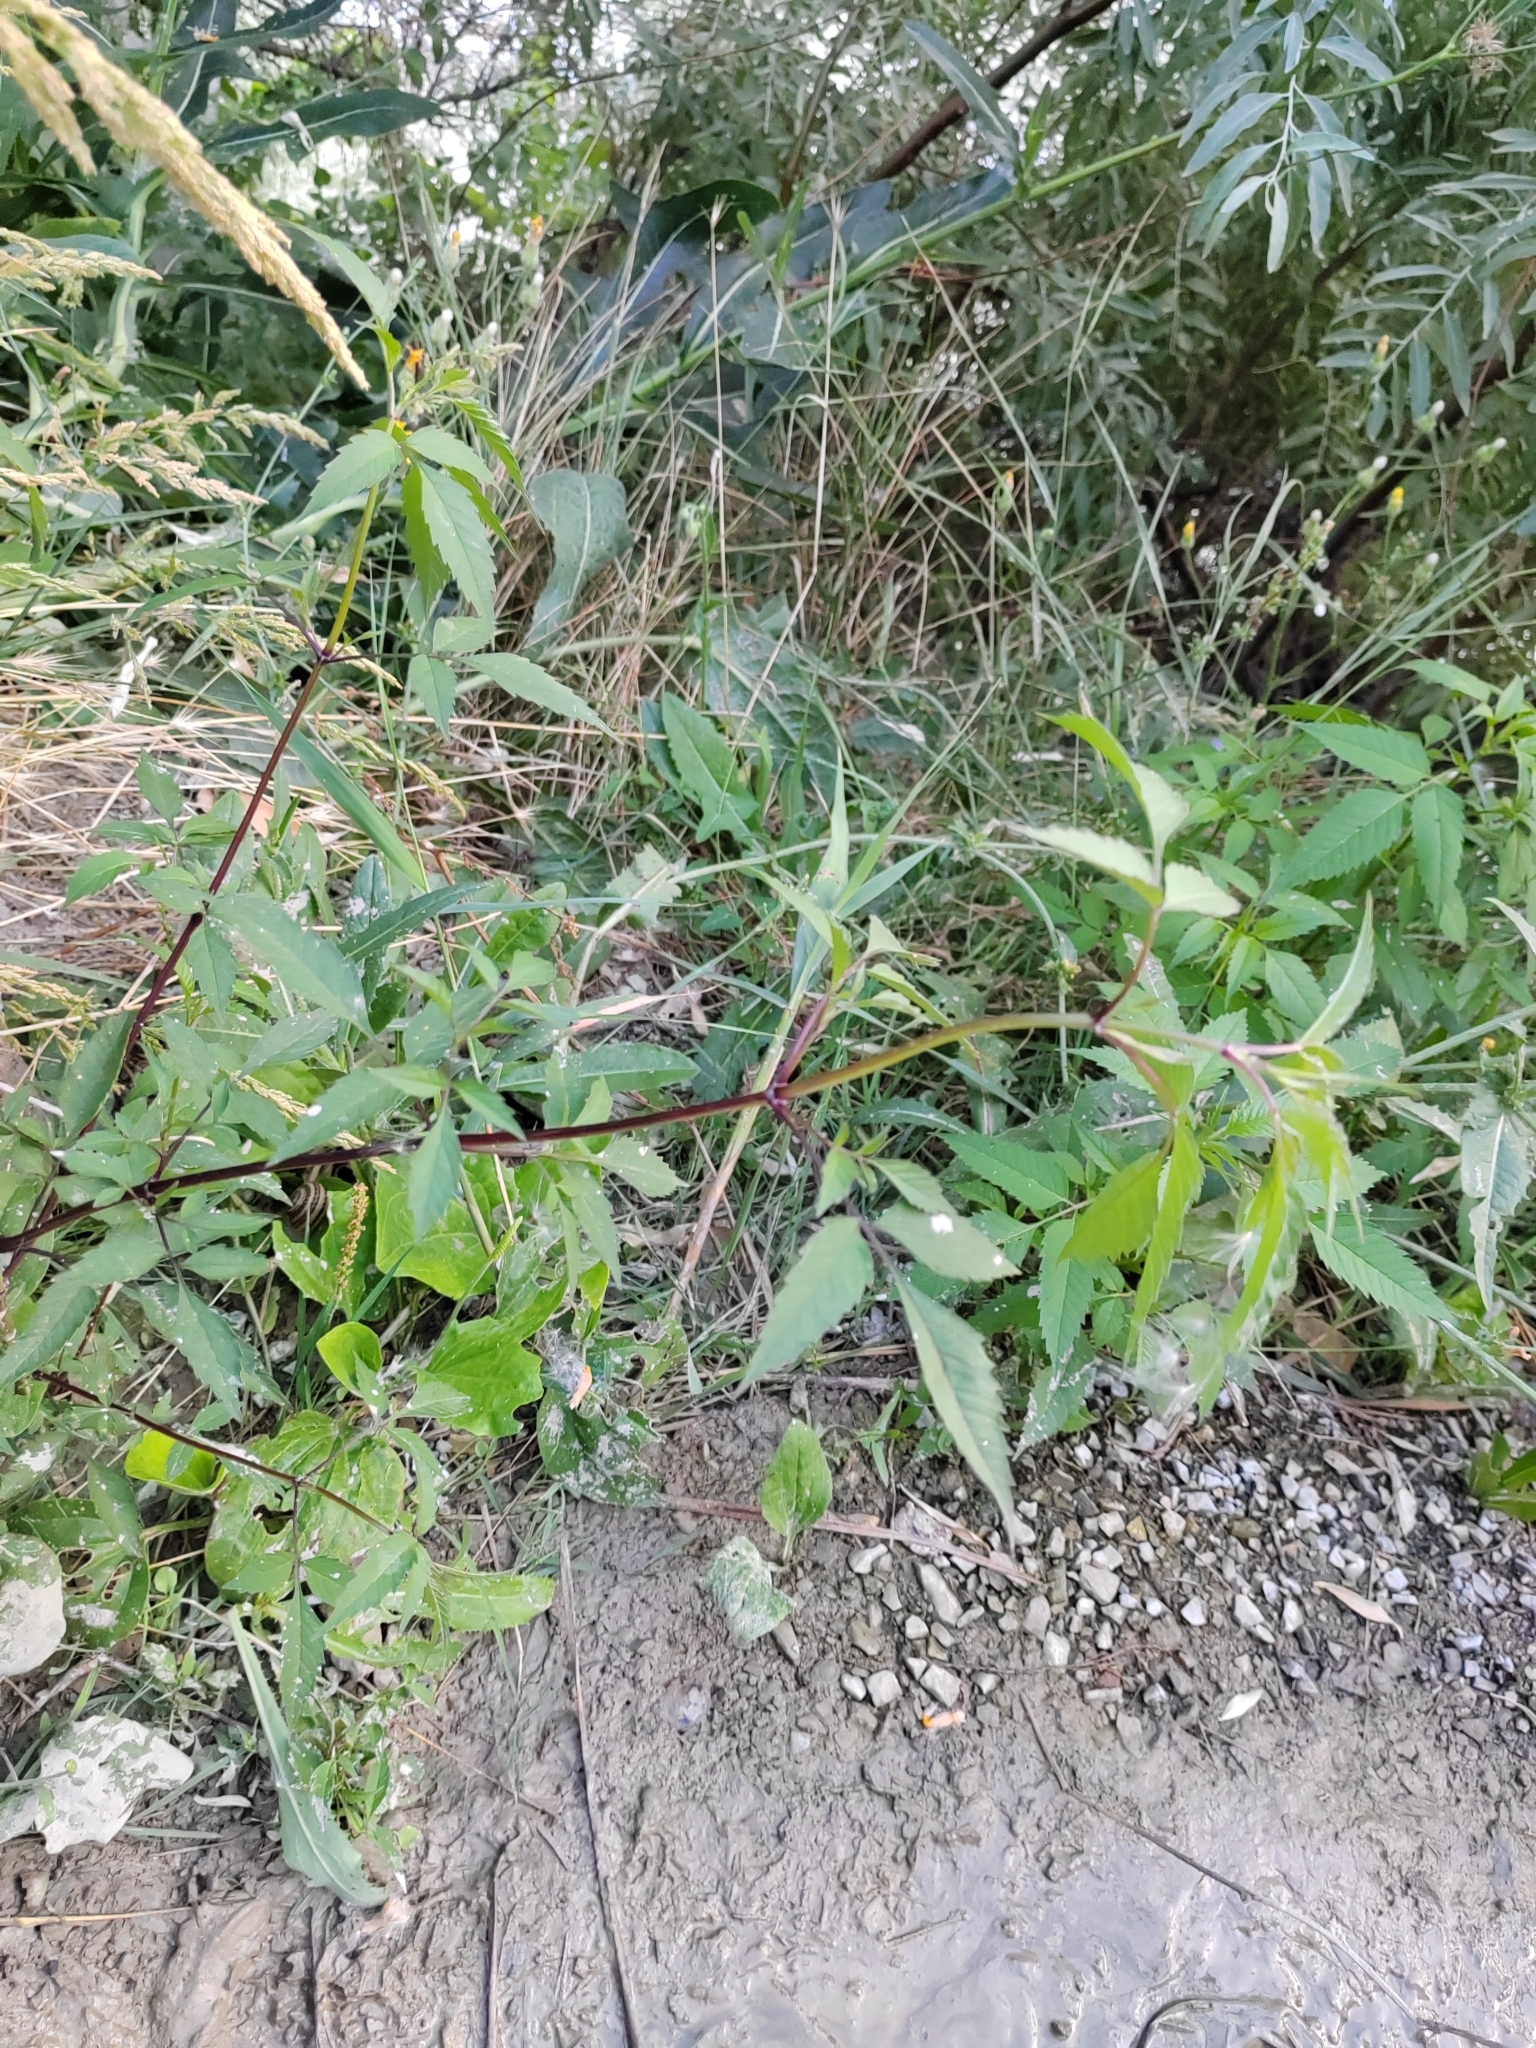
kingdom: Plantae
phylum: Tracheophyta
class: Magnoliopsida
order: Asterales
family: Asteraceae
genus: Bidens
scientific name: Bidens frondosa
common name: Beggarticks
